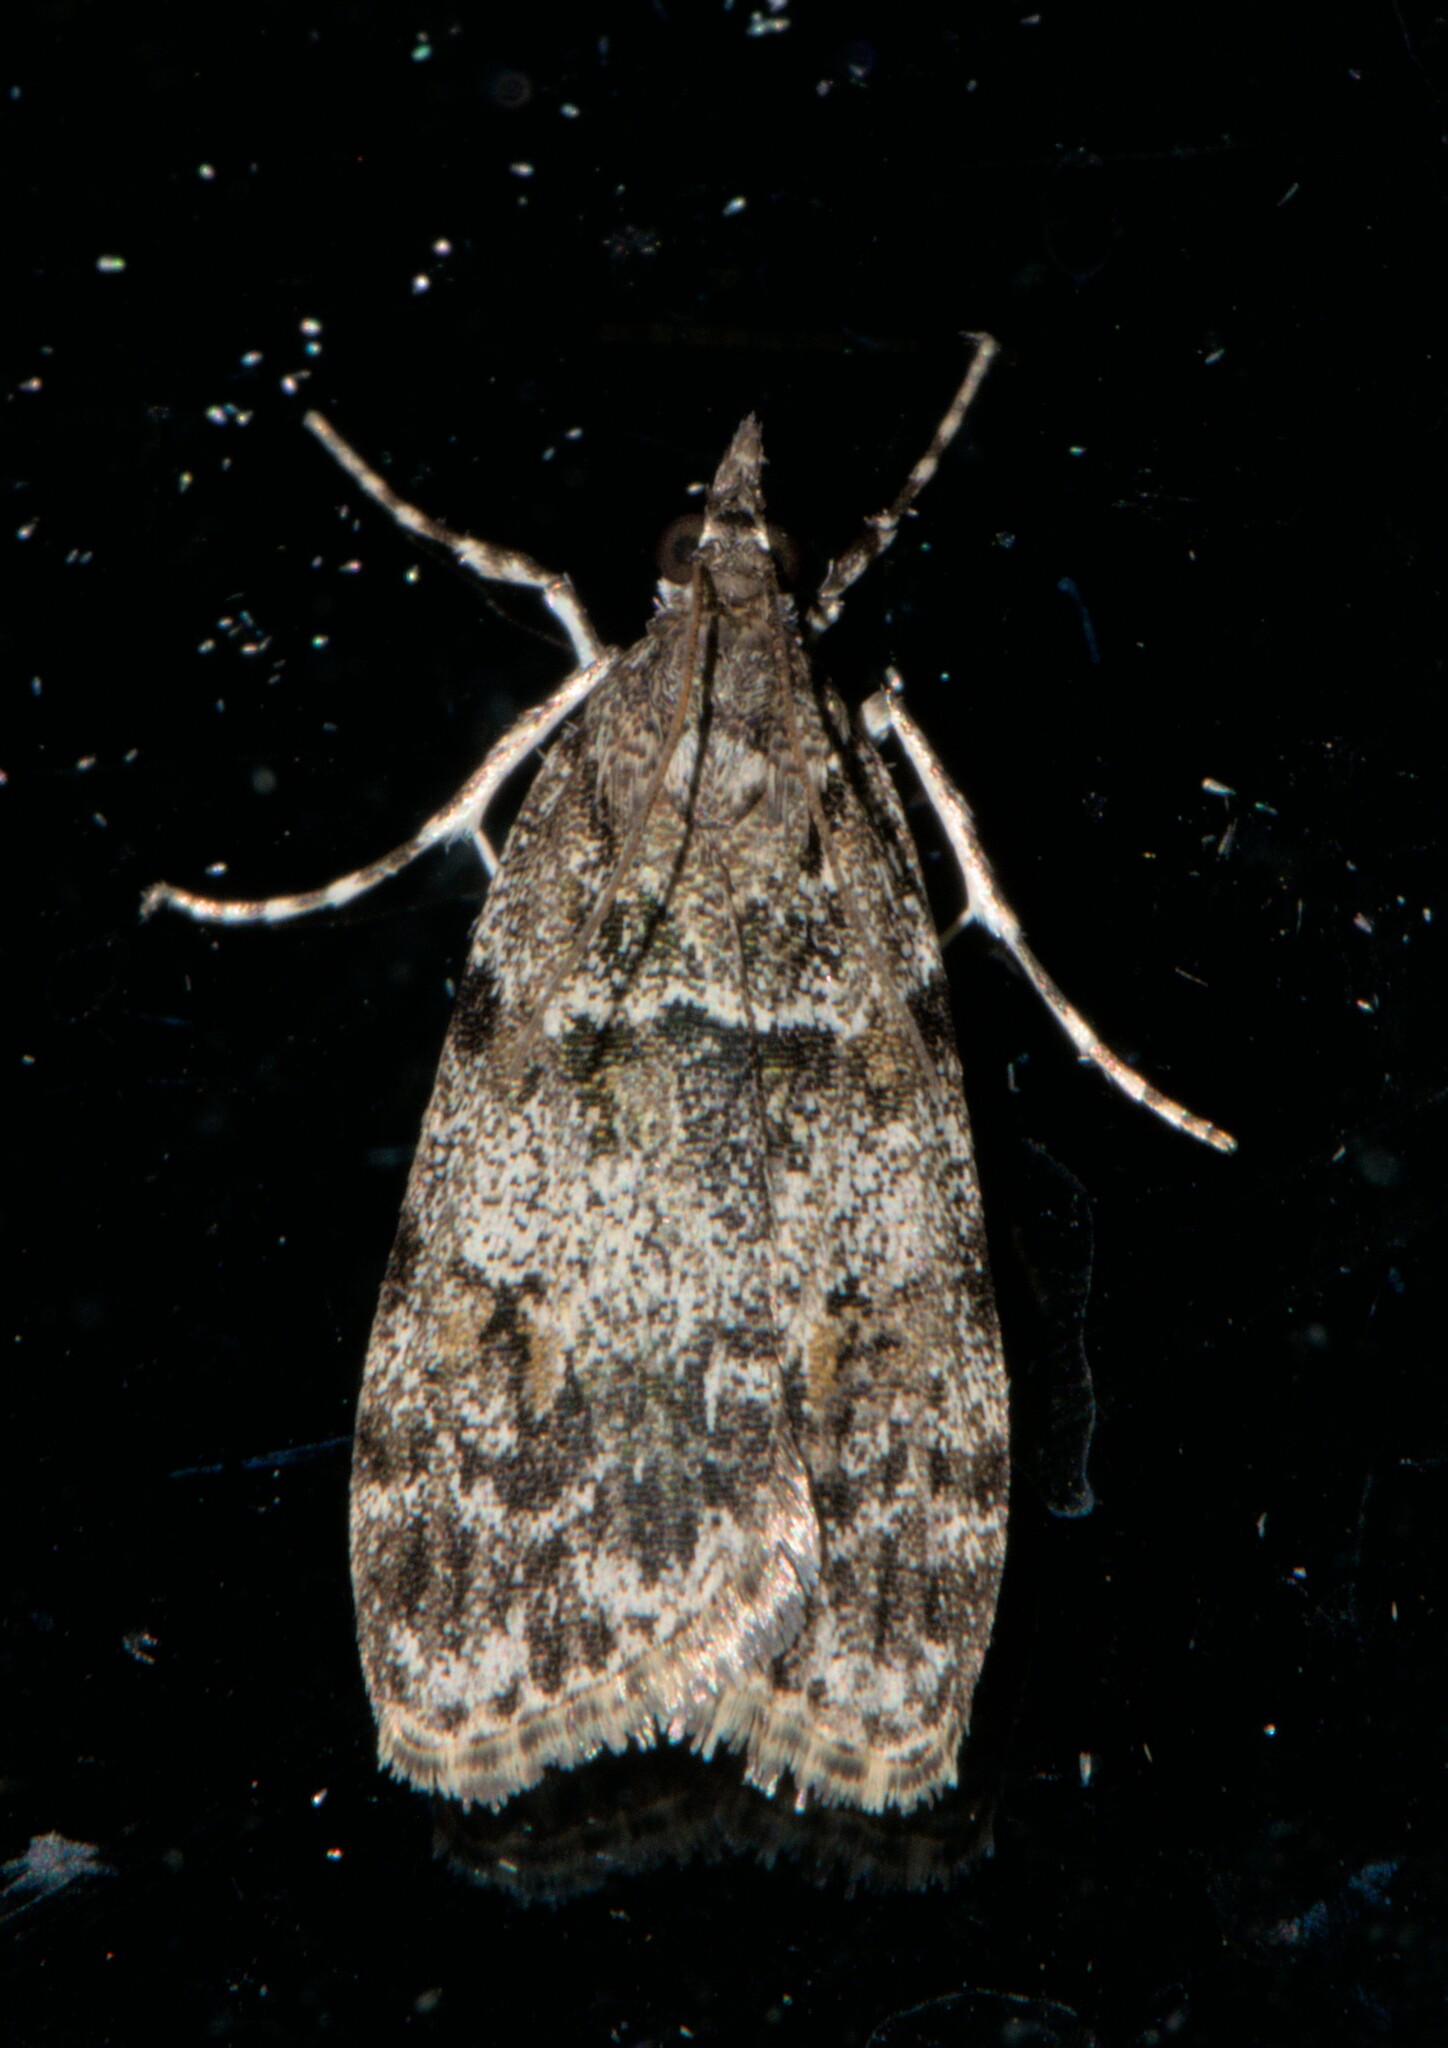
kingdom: Animalia
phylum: Arthropoda
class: Insecta
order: Lepidoptera
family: Crambidae
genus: Scoparia
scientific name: Scoparia murificalis
